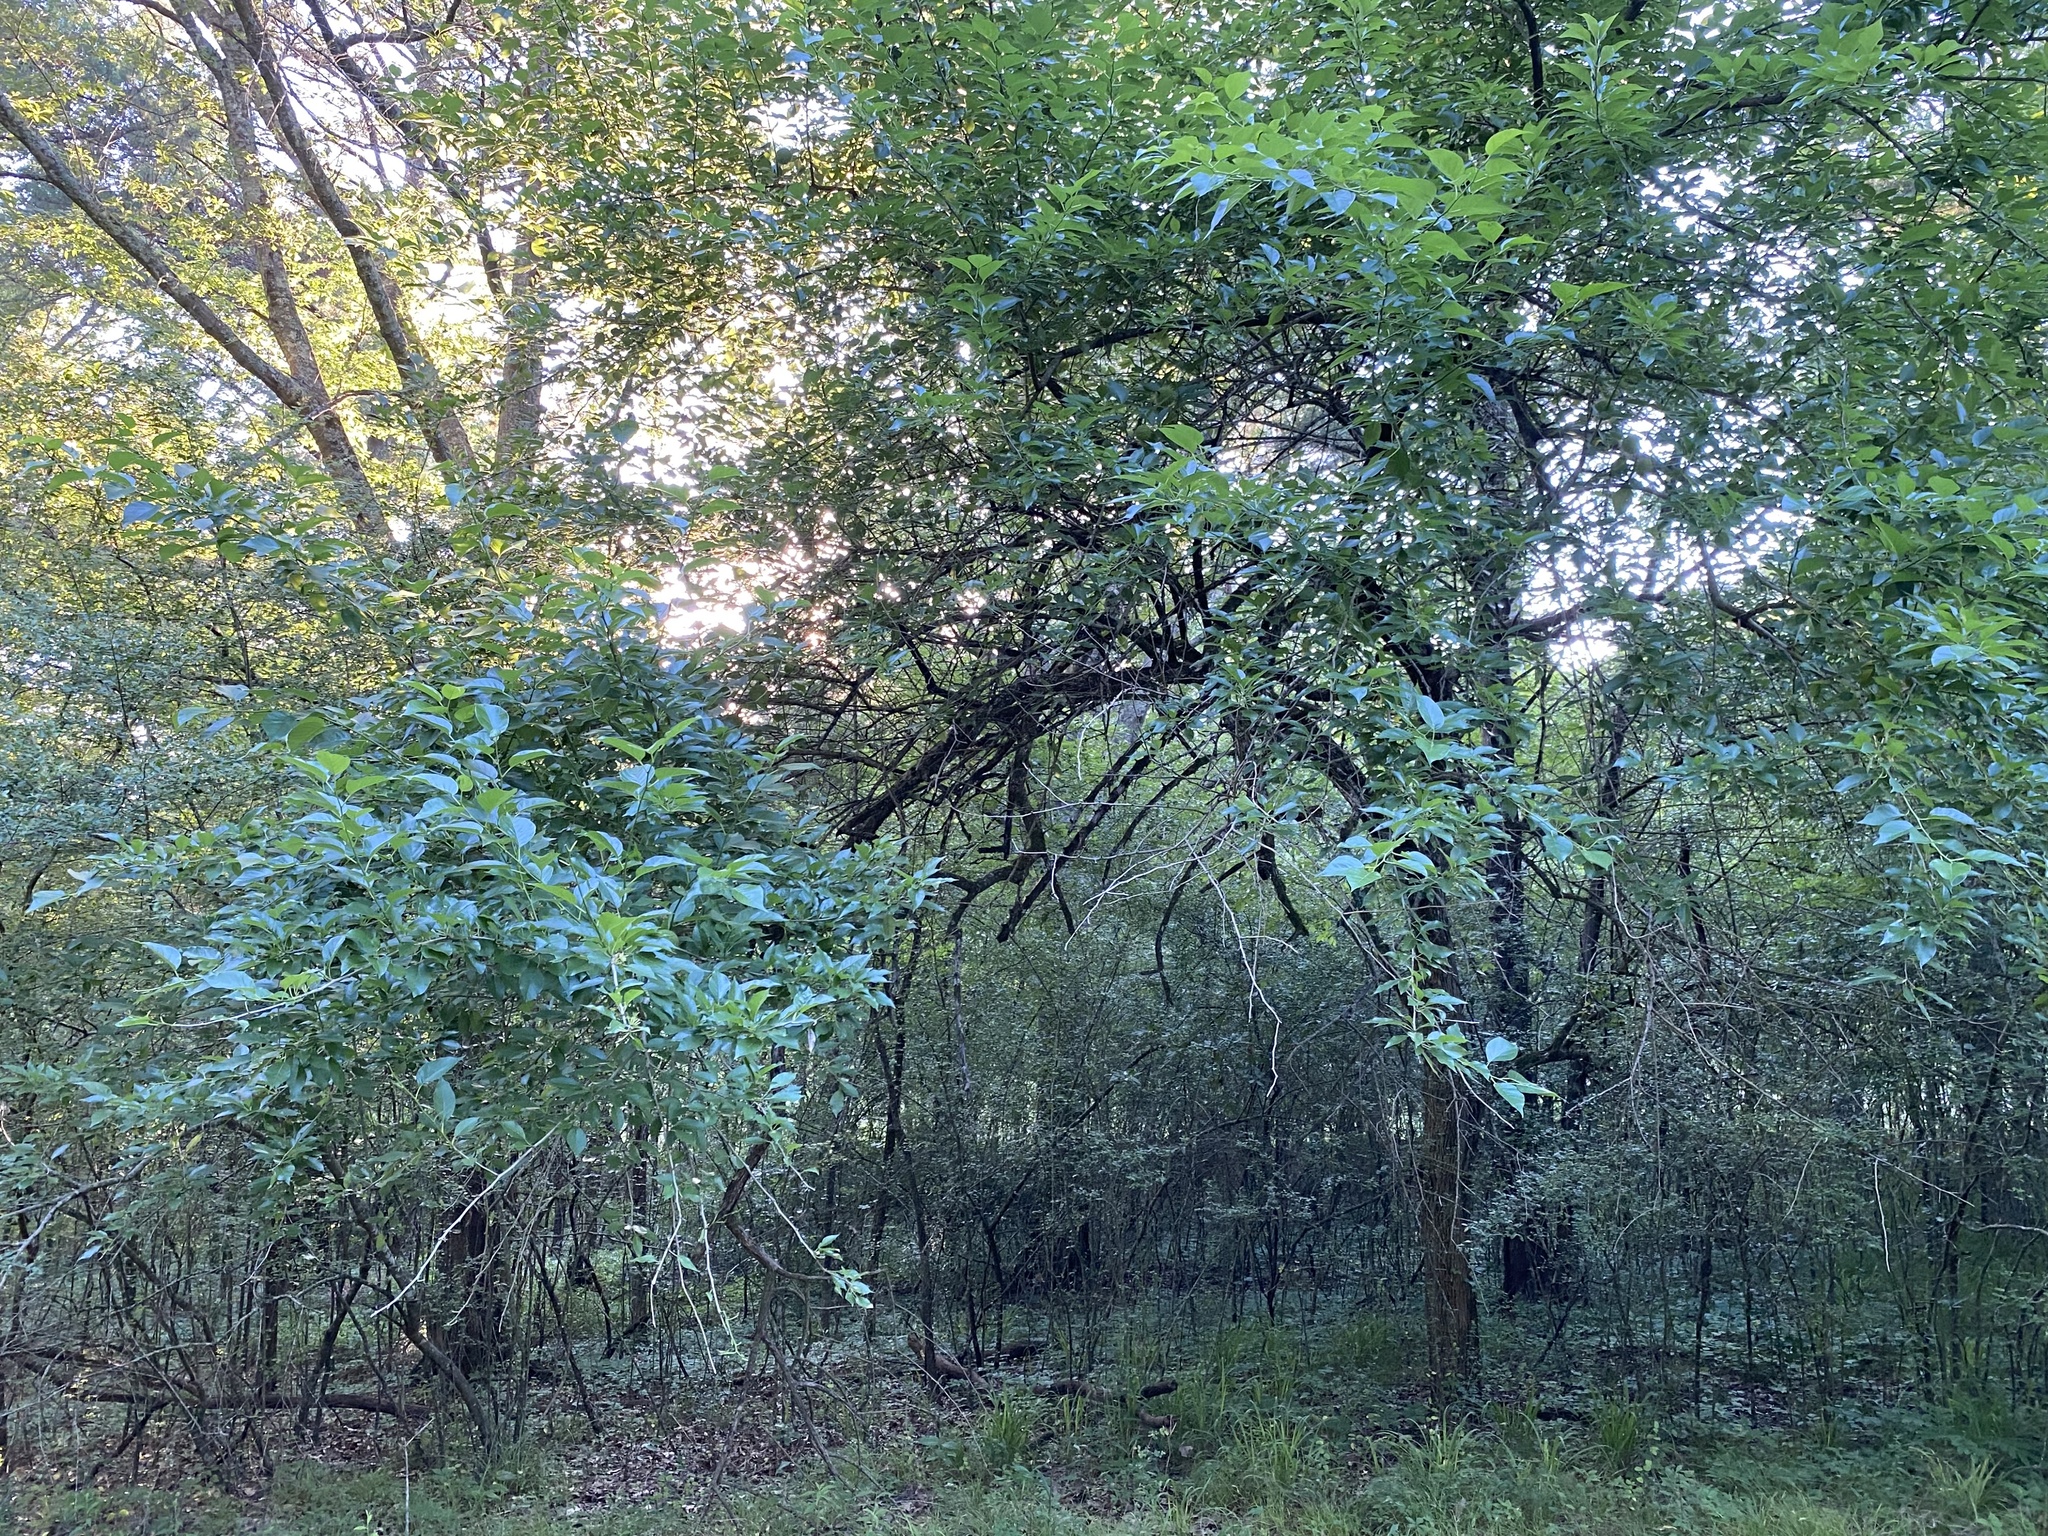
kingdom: Plantae
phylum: Tracheophyta
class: Magnoliopsida
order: Rosales
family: Moraceae
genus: Maclura
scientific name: Maclura pomifera
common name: Osage-orange
